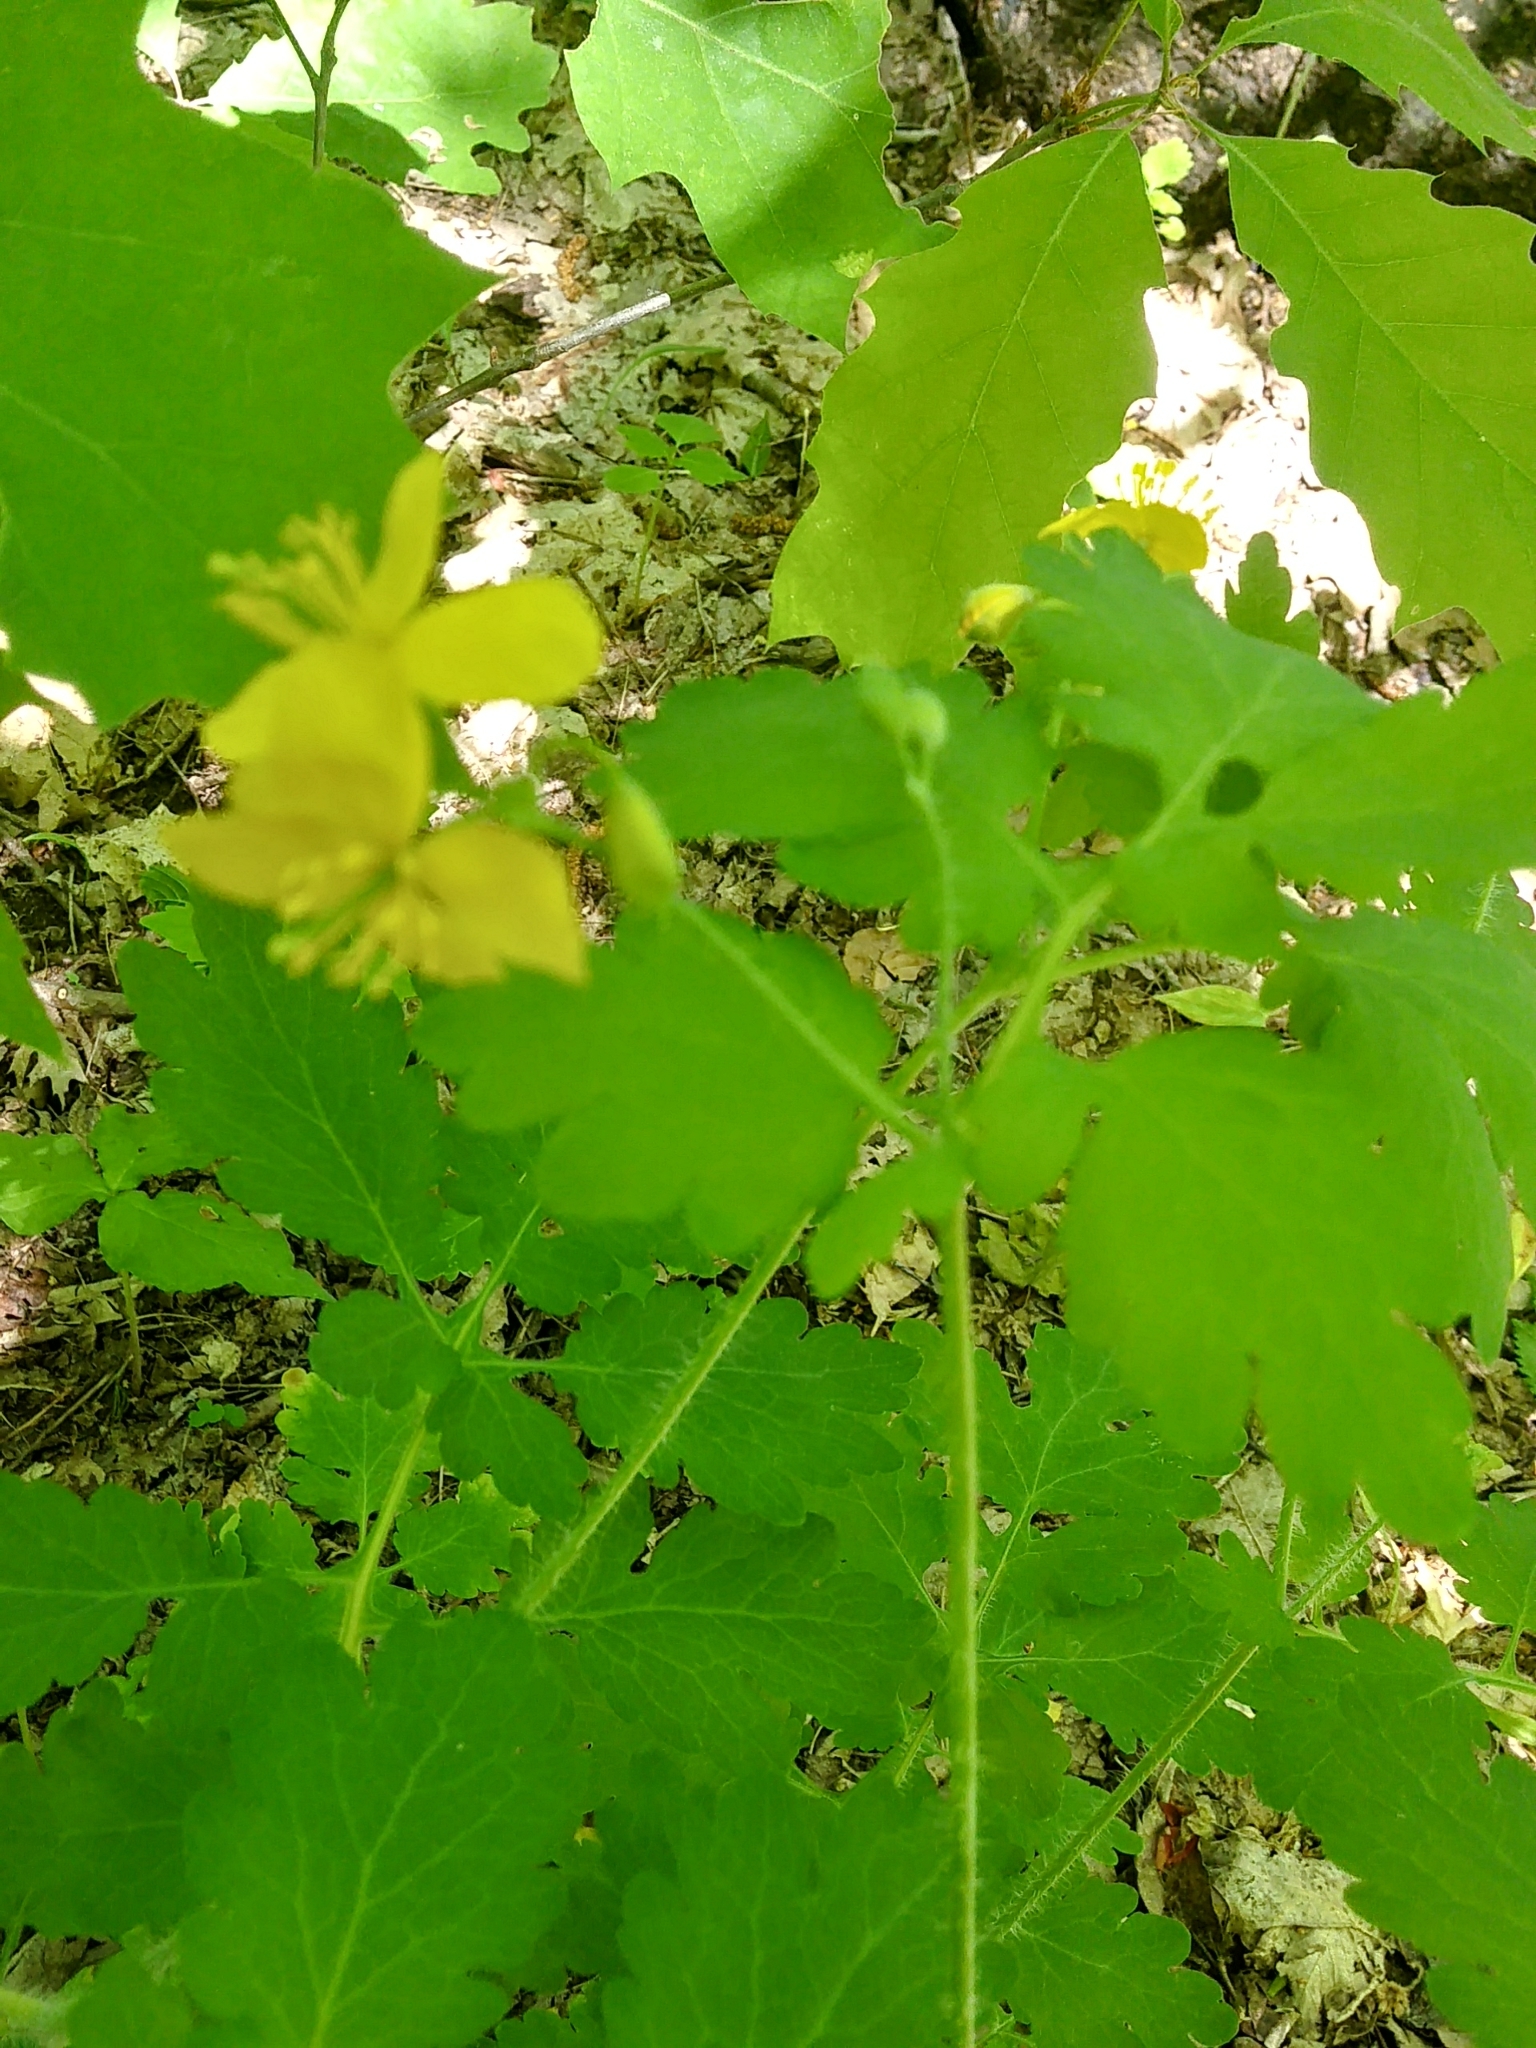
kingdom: Plantae
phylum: Tracheophyta
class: Magnoliopsida
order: Ranunculales
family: Papaveraceae
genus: Chelidonium
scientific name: Chelidonium majus
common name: Greater celandine
